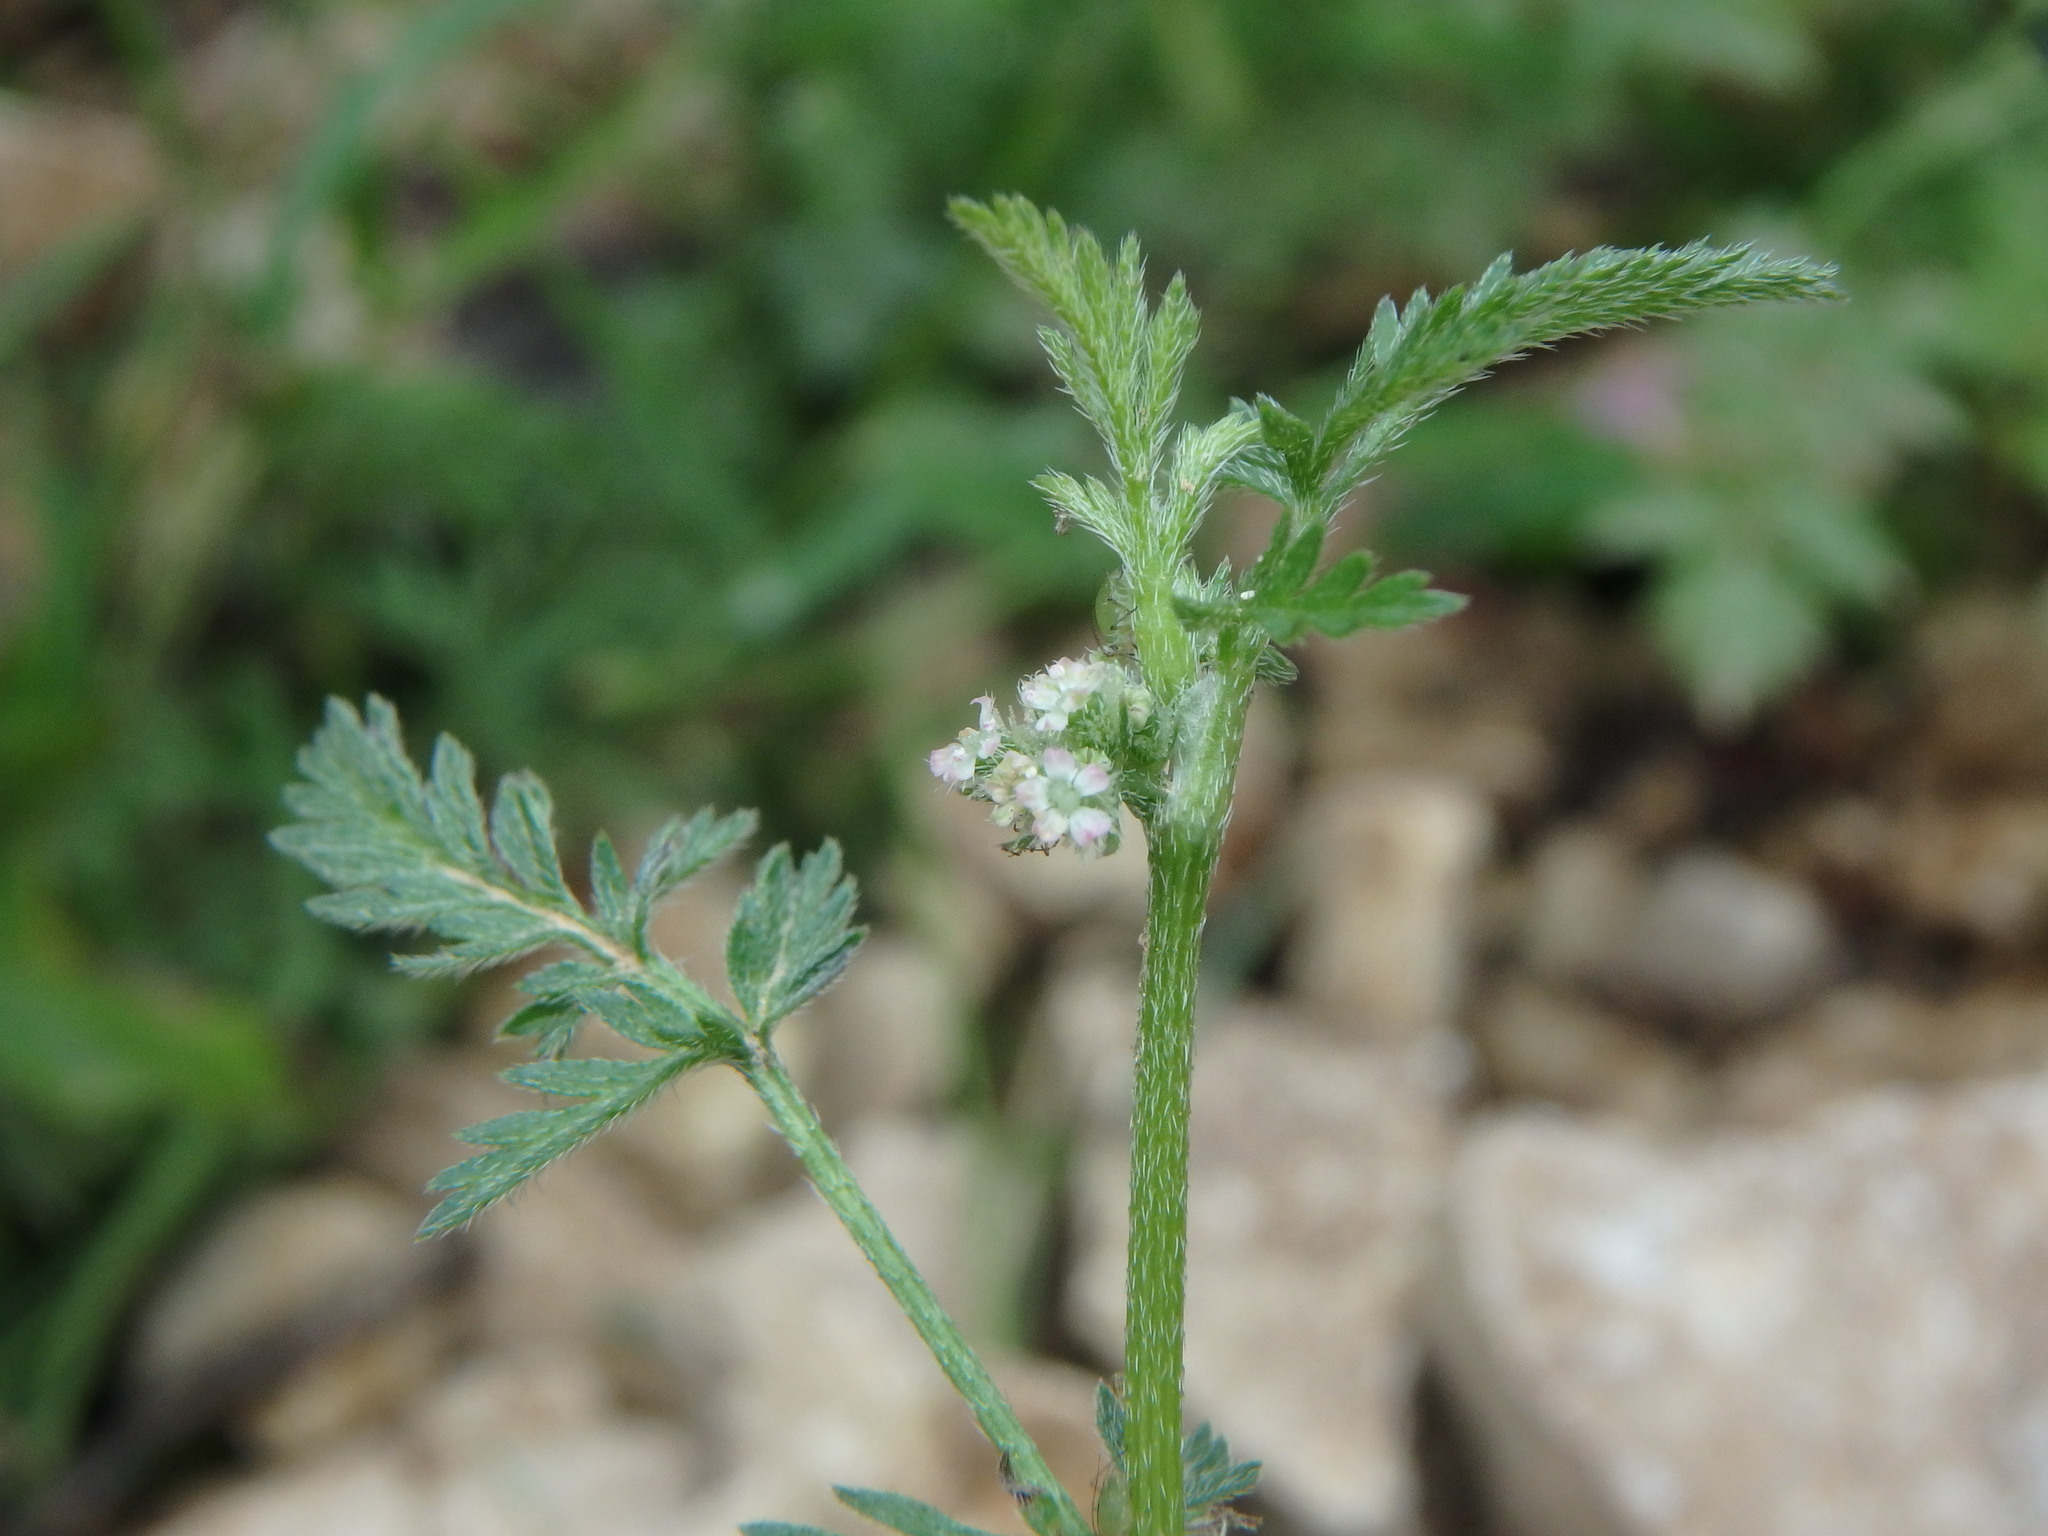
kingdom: Plantae
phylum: Tracheophyta
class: Magnoliopsida
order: Apiales
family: Apiaceae
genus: Torilis
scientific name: Torilis nodosa
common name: Knotted hedge-parsley
